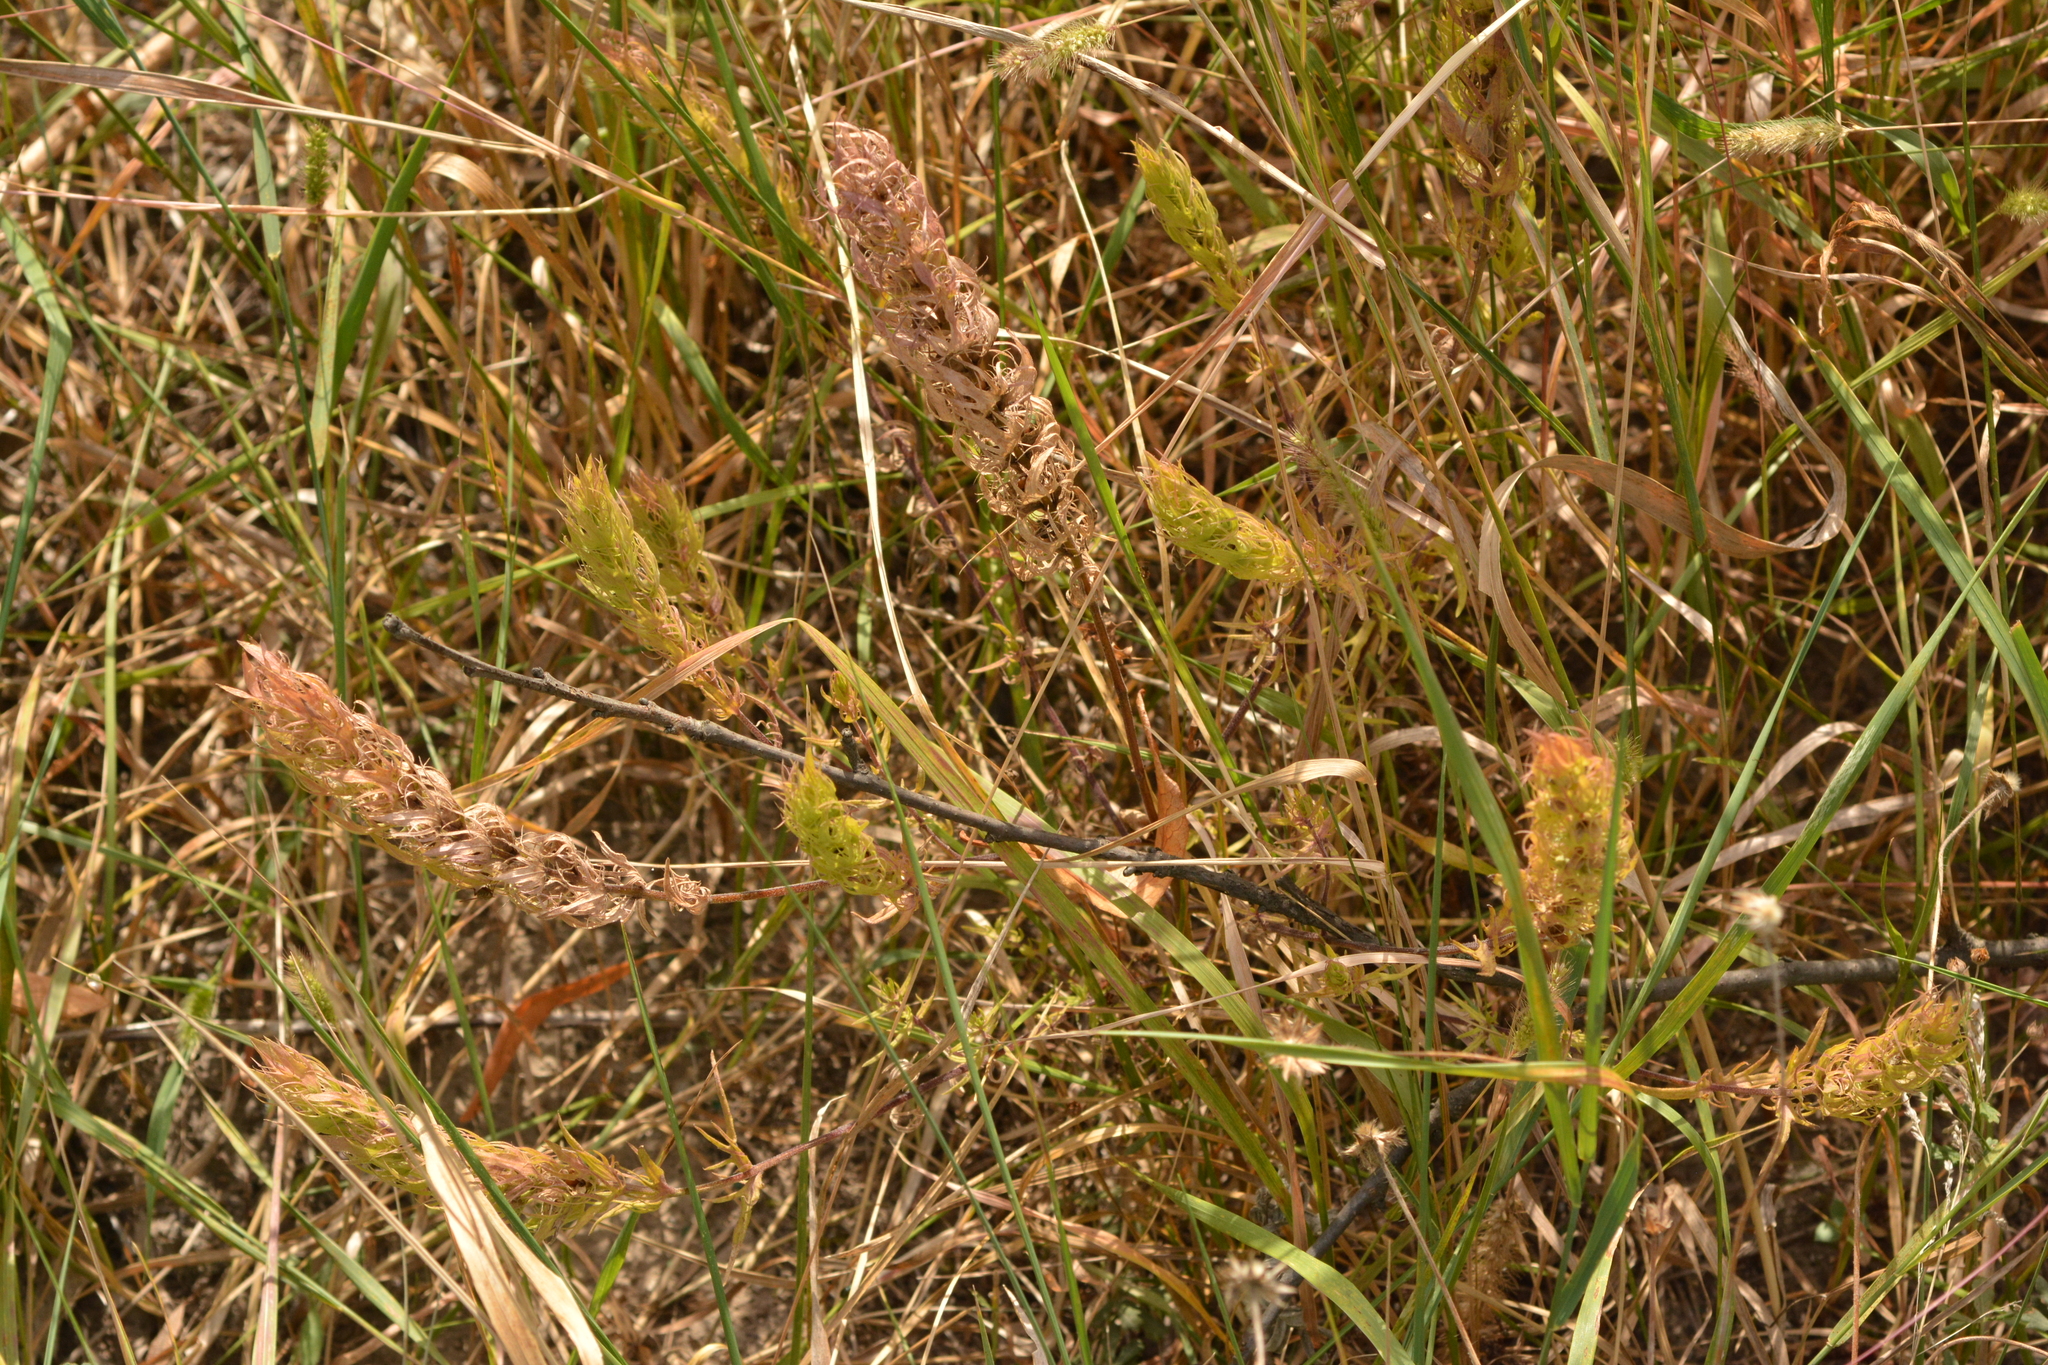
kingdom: Plantae
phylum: Tracheophyta
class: Magnoliopsida
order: Lamiales
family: Orobanchaceae
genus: Melampyrum
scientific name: Melampyrum arvense
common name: Field cow-wheat
